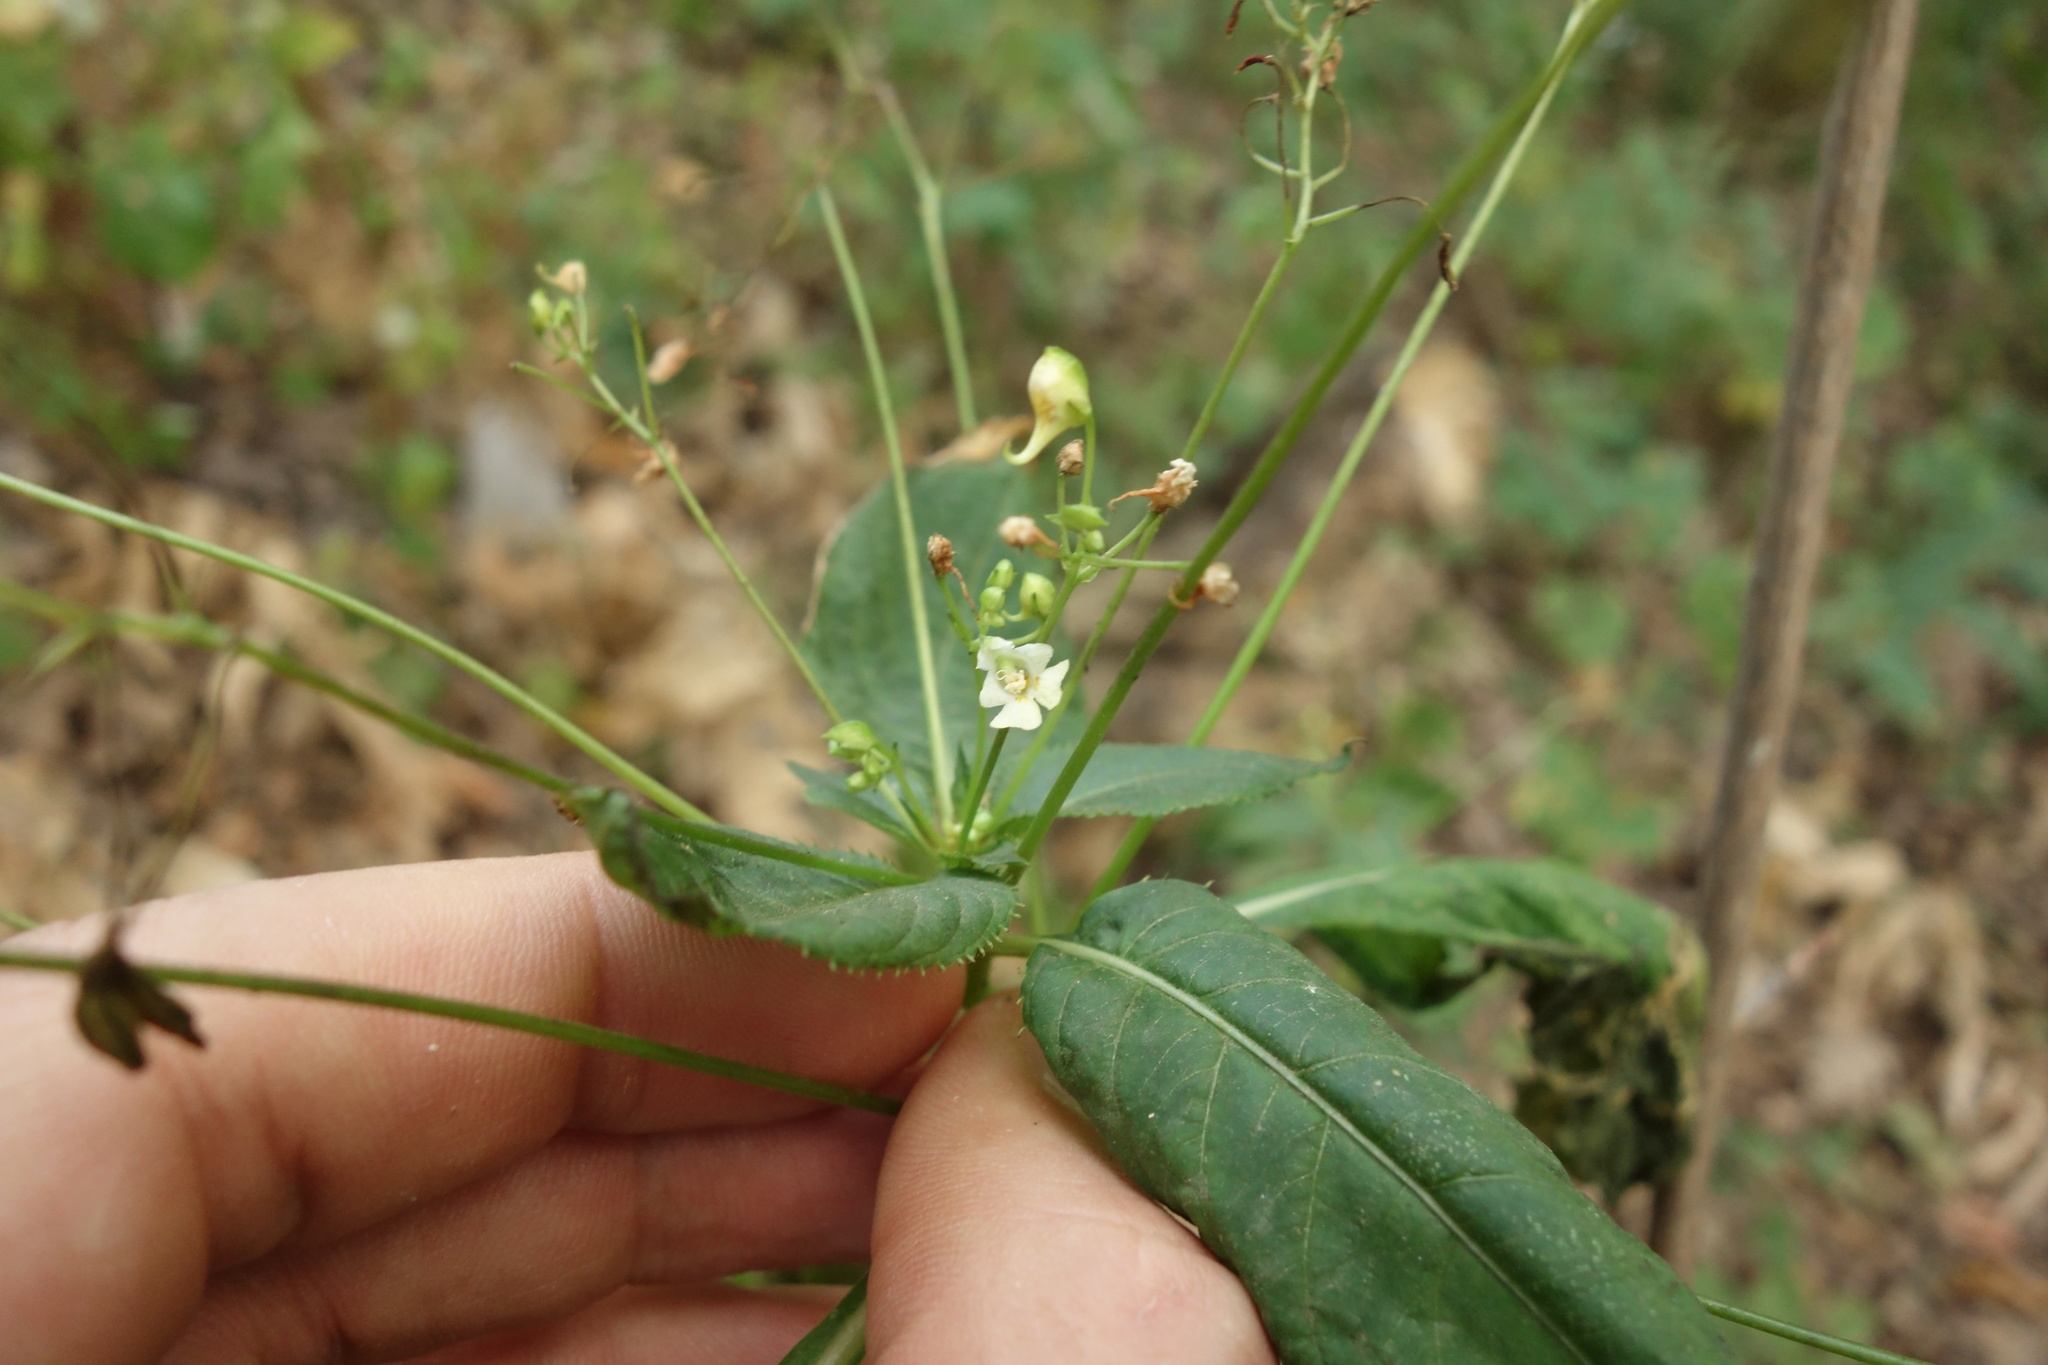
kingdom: Plantae
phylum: Tracheophyta
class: Magnoliopsida
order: Ericales
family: Balsaminaceae
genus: Impatiens
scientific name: Impatiens parviflora
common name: Small balsam
